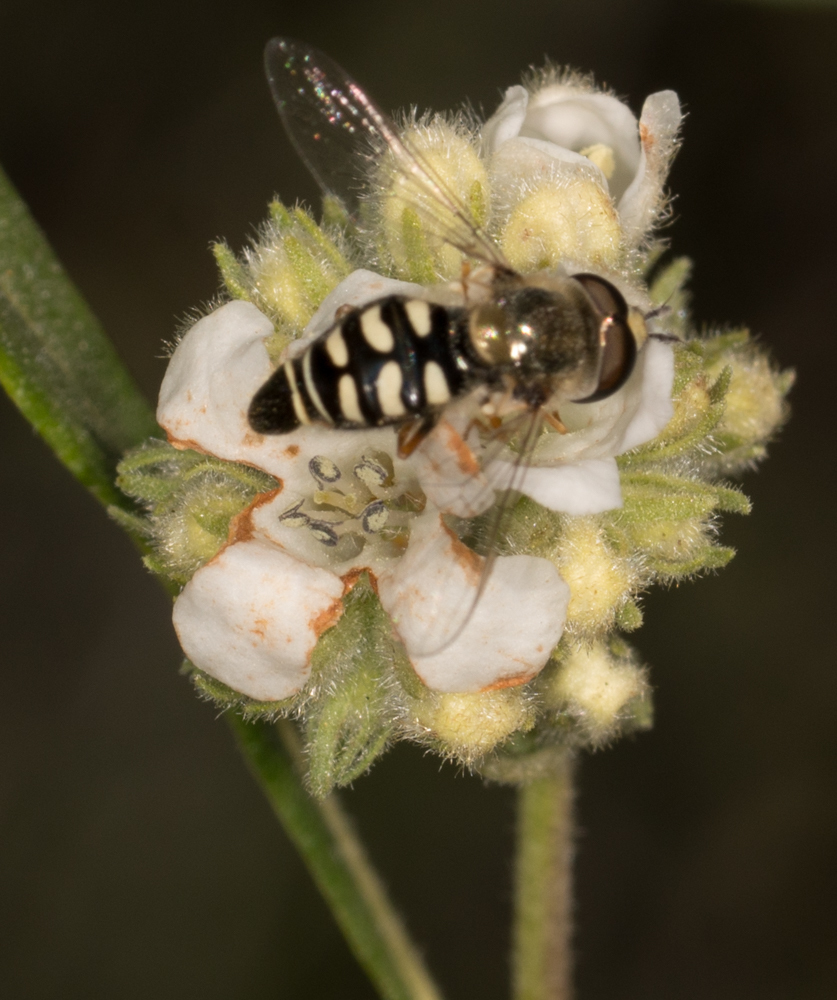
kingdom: Animalia
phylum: Arthropoda
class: Insecta
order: Diptera
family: Syrphidae
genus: Eupeodes
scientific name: Eupeodes volucris
